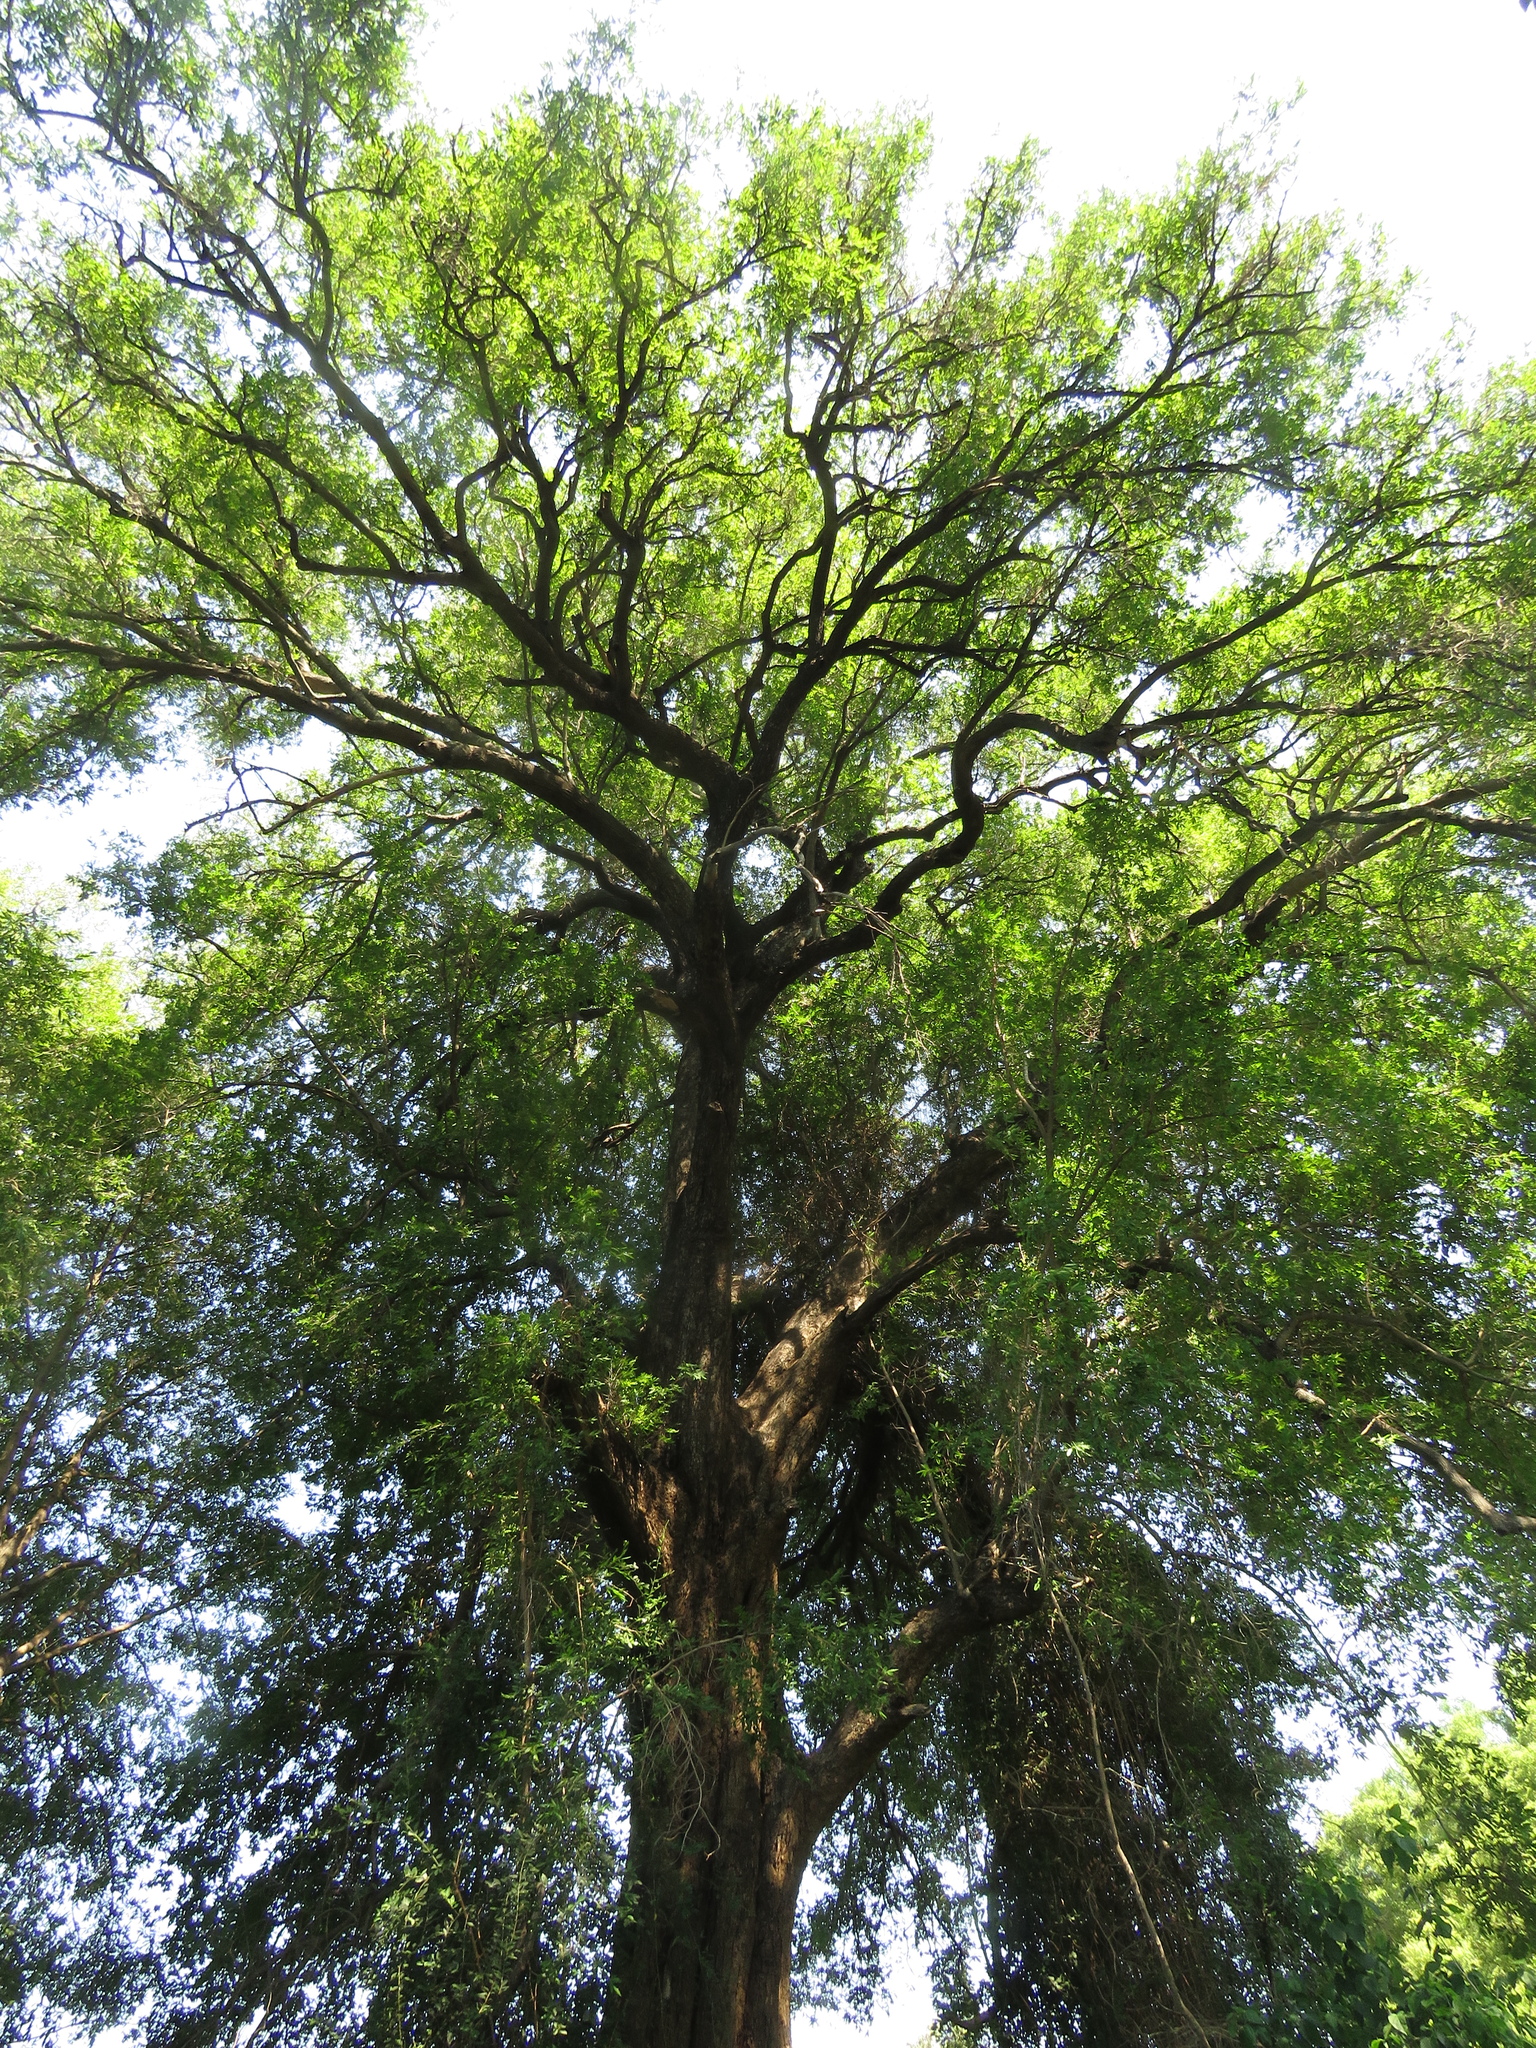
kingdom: Plantae
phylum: Tracheophyta
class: Magnoliopsida
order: Ericales
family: Ebenaceae
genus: Diospyros
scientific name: Diospyros mespiliformis
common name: Ebony diospyros
